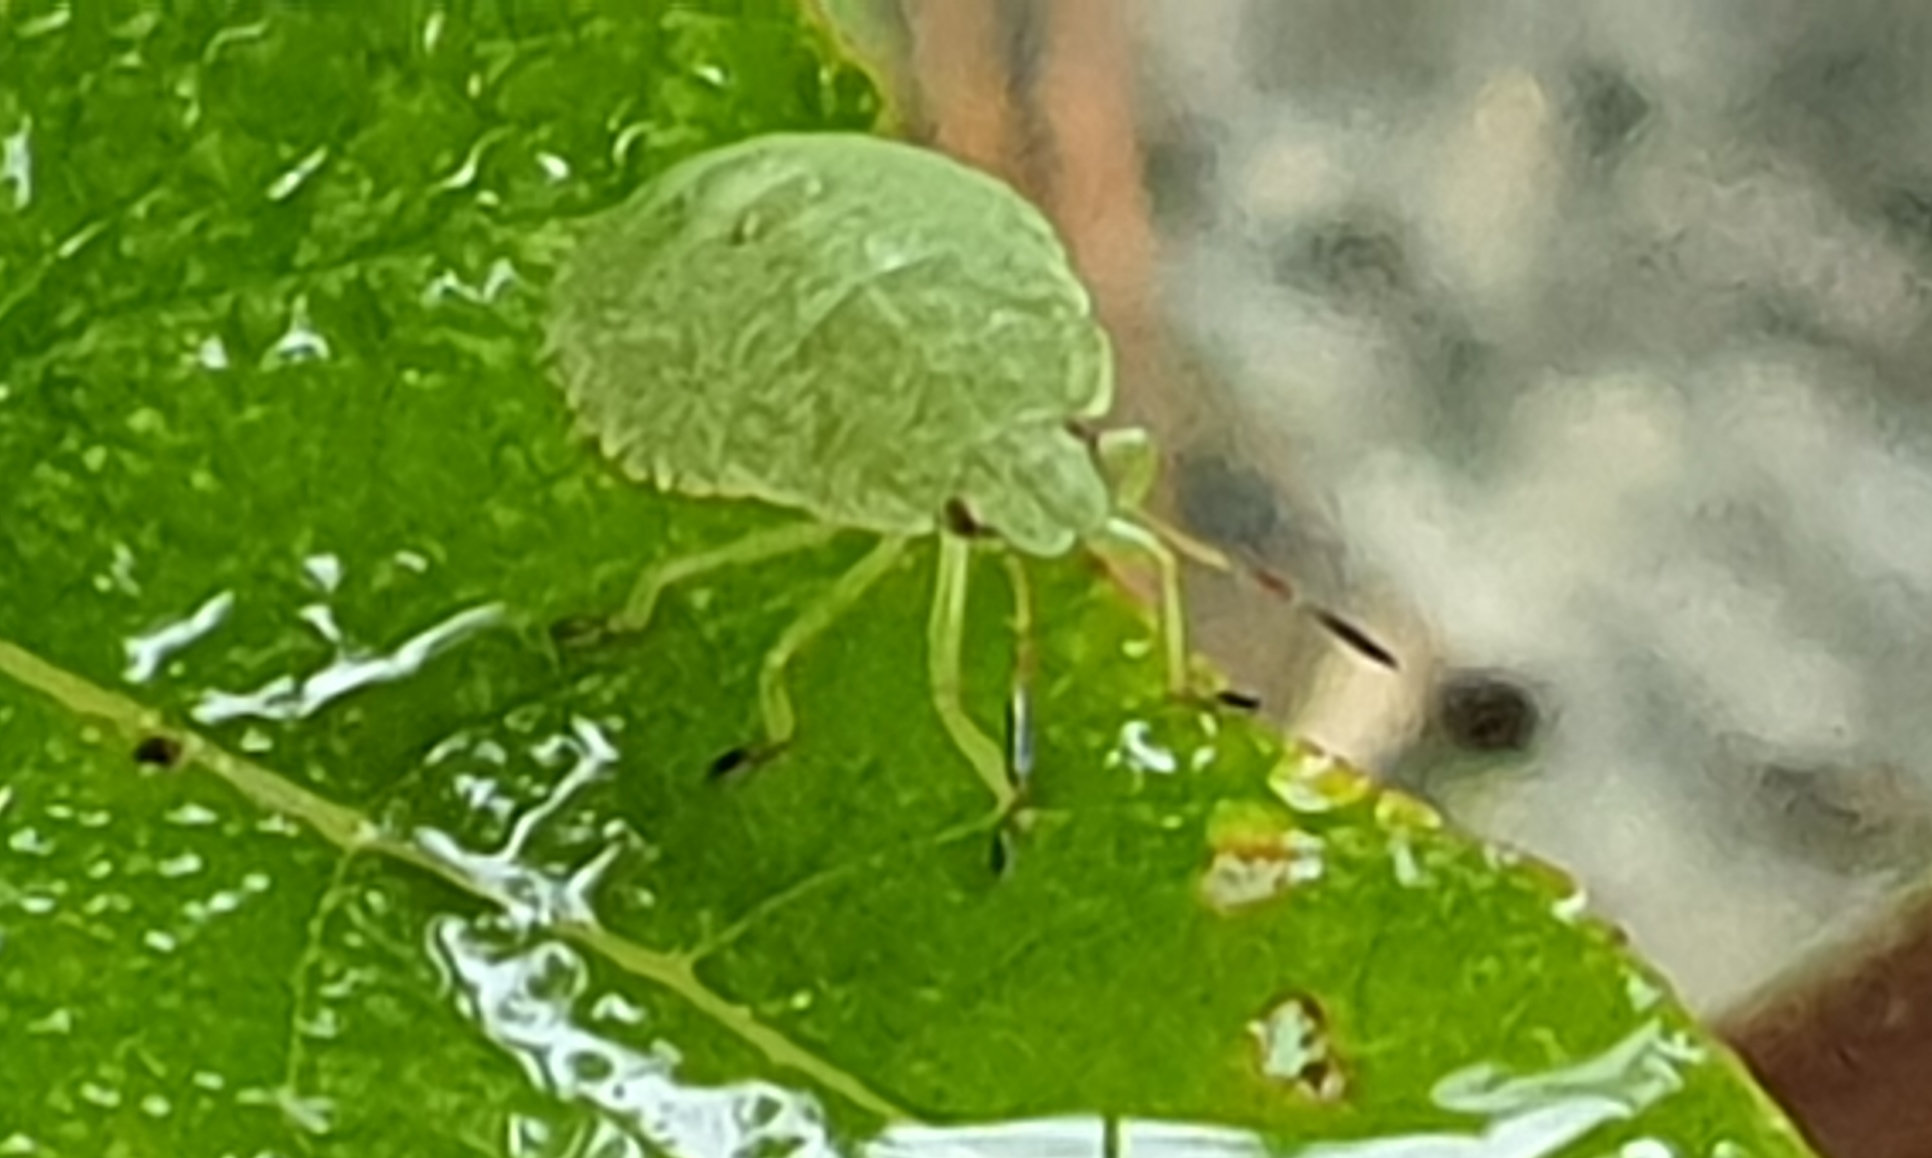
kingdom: Animalia
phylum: Arthropoda
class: Insecta
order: Hemiptera
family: Pentatomidae
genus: Palomena
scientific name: Palomena prasina
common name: Green shieldbug
